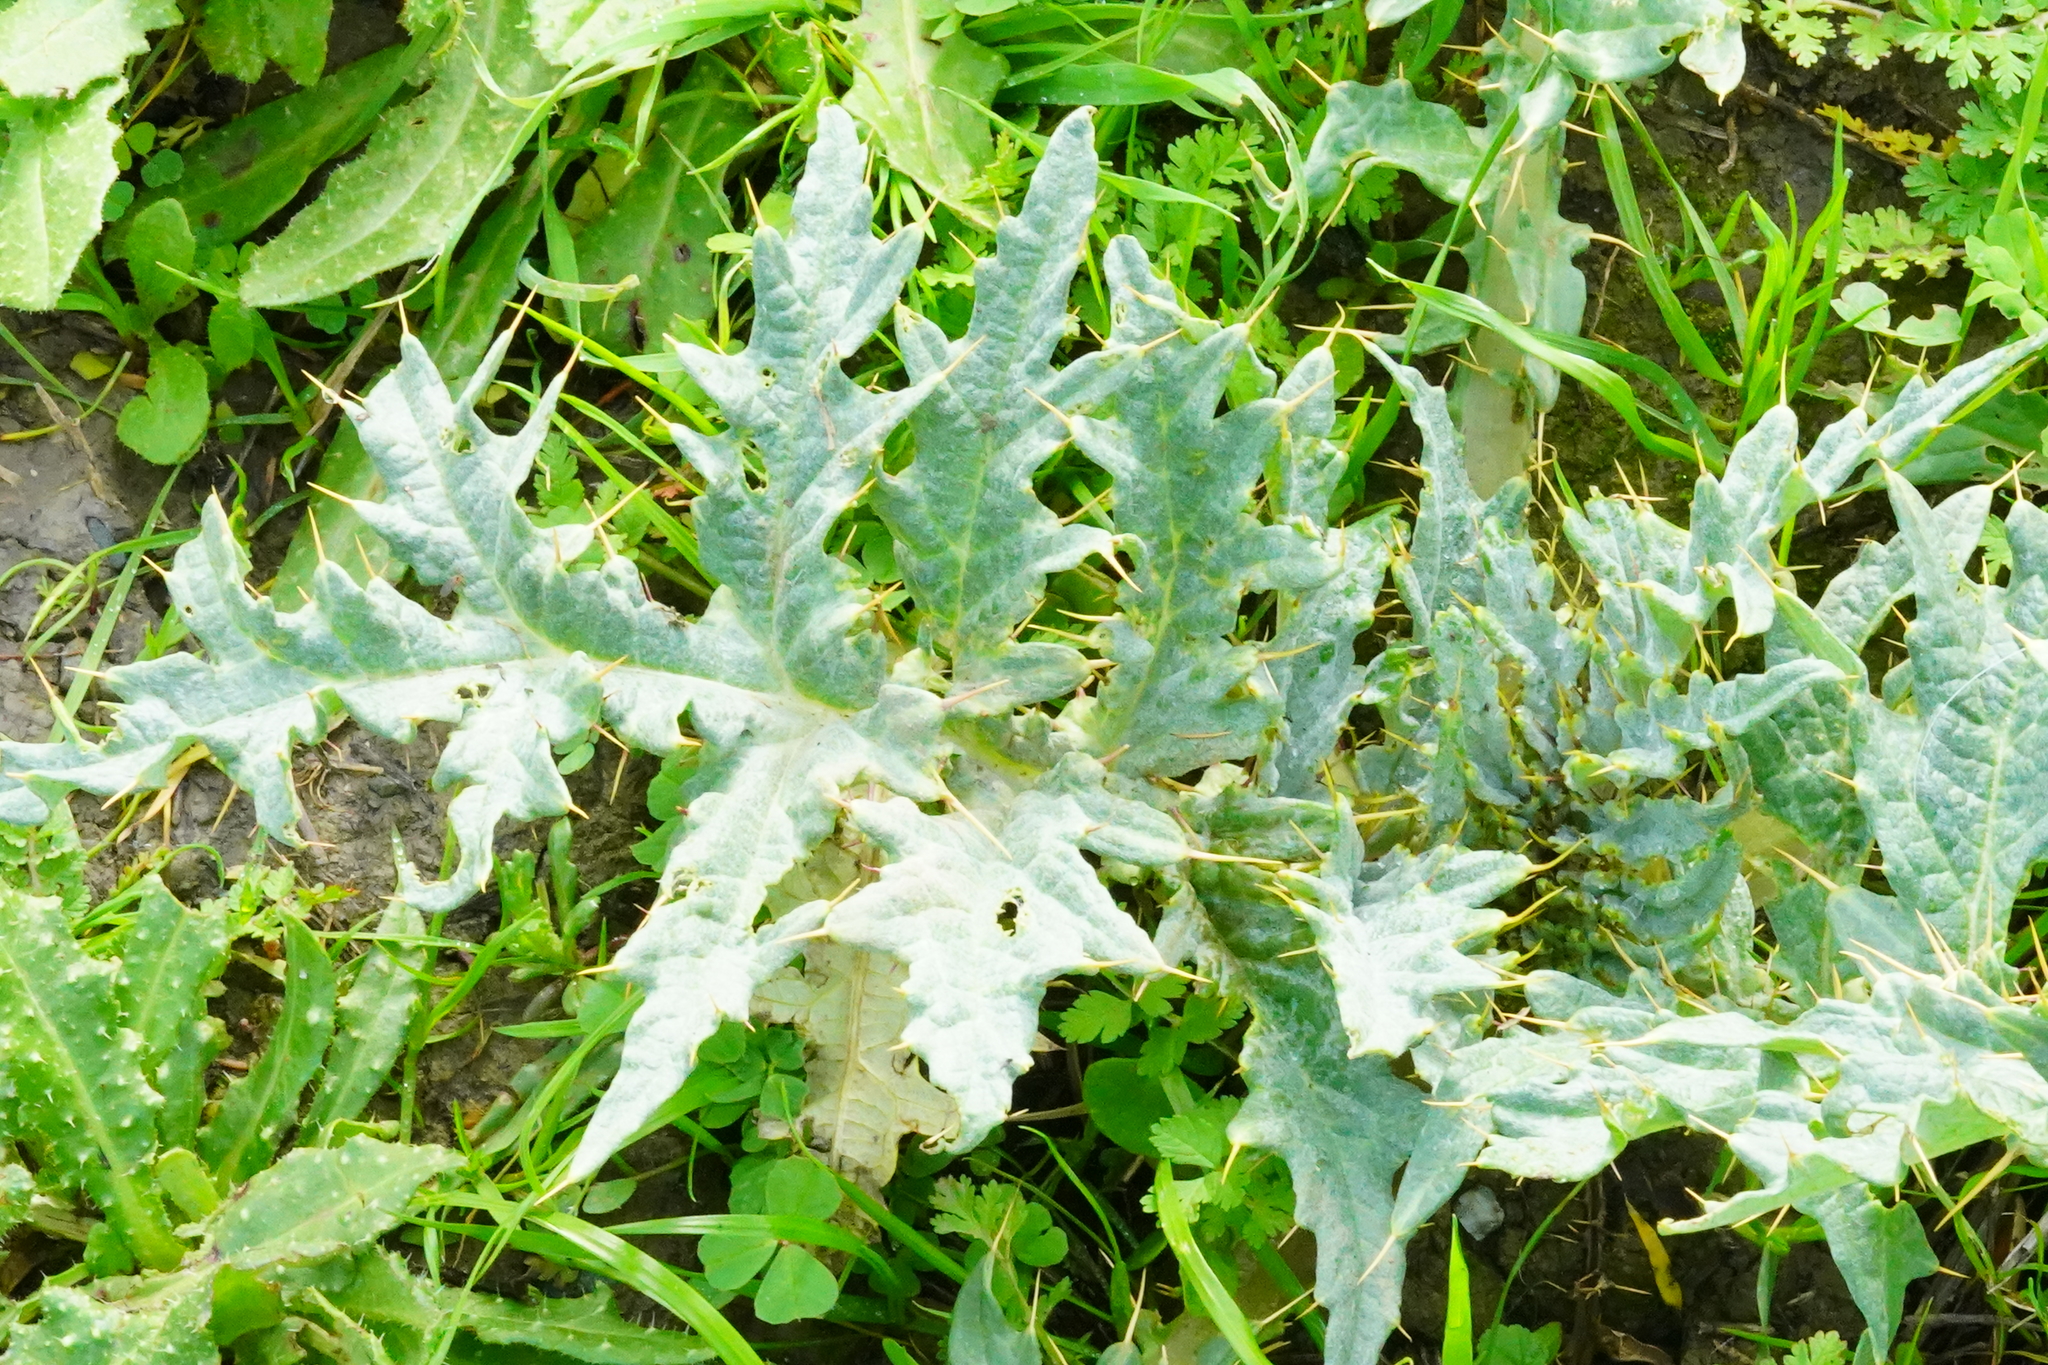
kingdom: Plantae
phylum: Tracheophyta
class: Magnoliopsida
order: Asterales
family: Asteraceae
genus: Cynara
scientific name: Cynara cardunculus
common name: Globe artichoke
